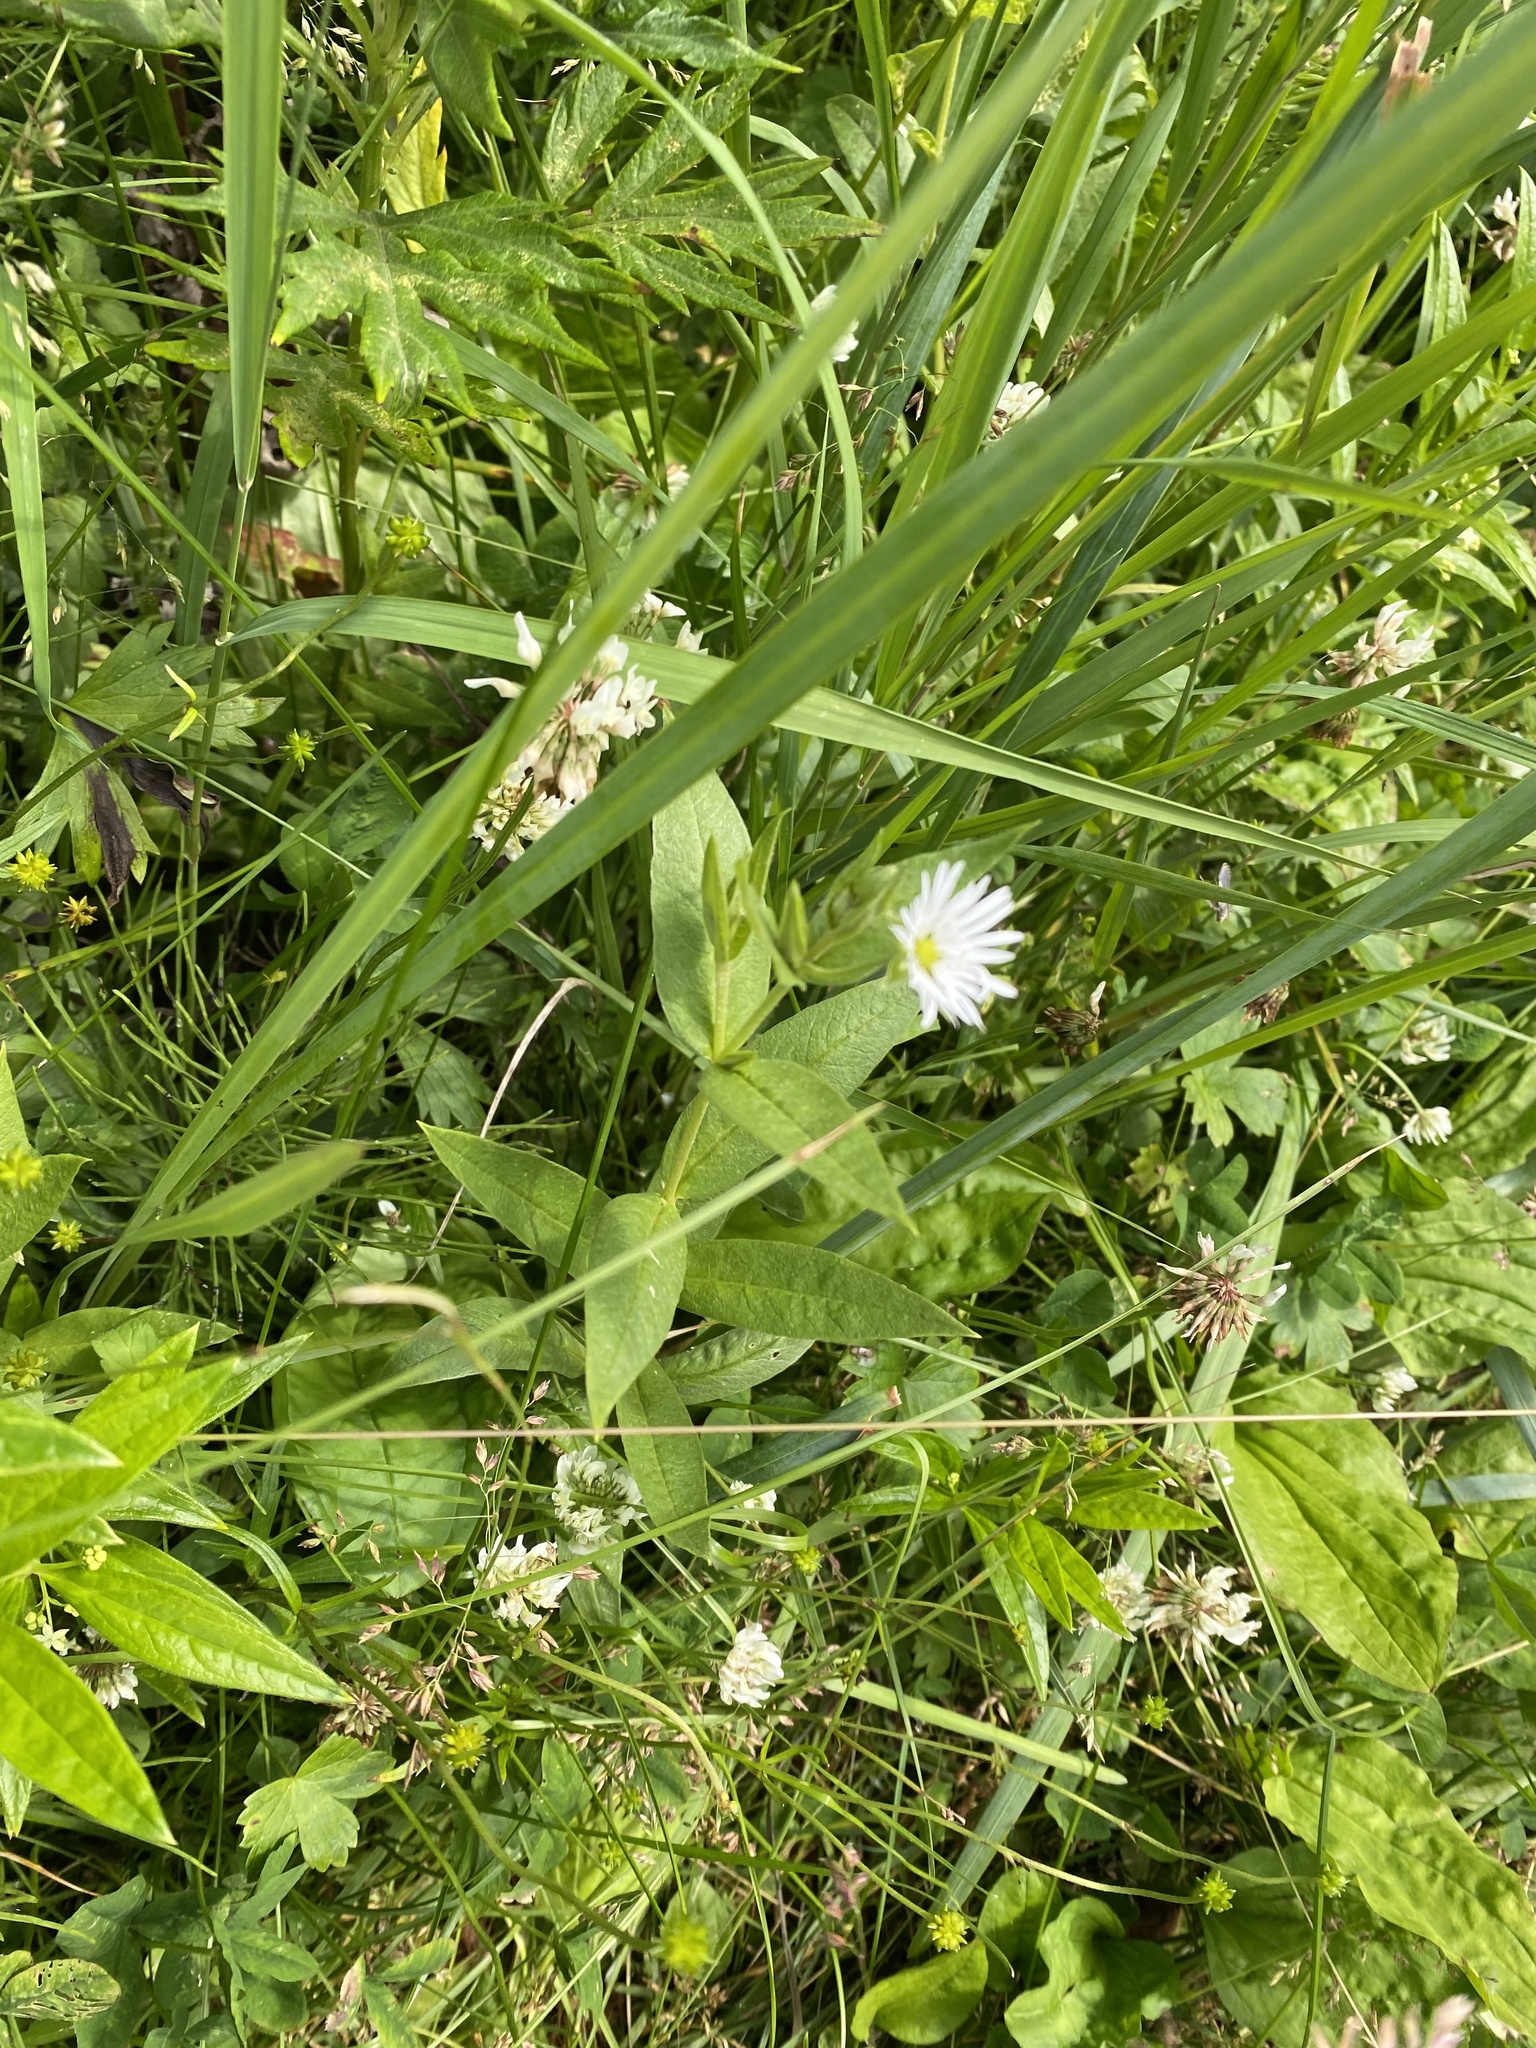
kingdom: Plantae
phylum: Tracheophyta
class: Magnoliopsida
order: Caryophyllales
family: Caryophyllaceae
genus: Stellaria
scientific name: Stellaria radians
